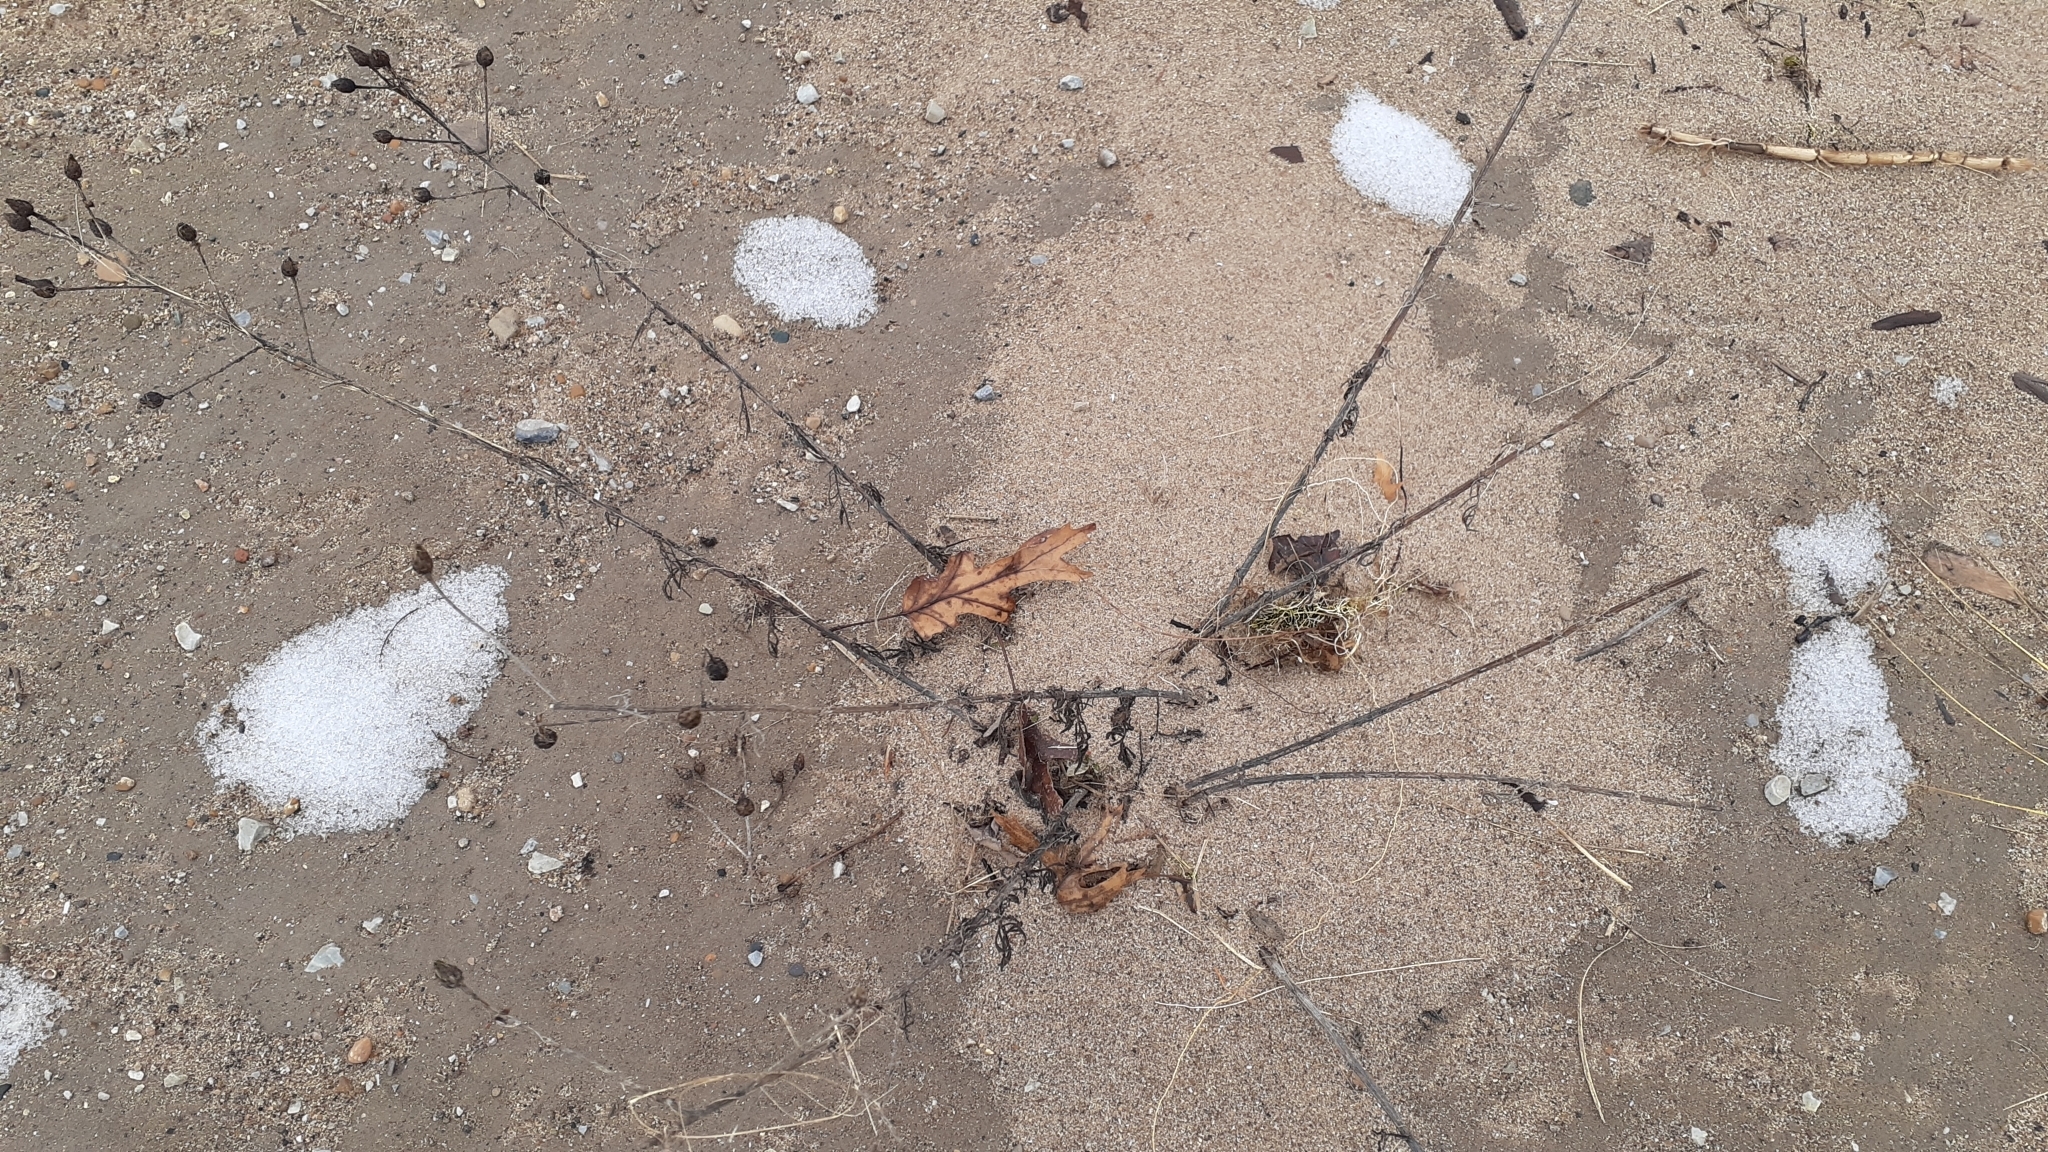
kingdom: Plantae
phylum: Tracheophyta
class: Magnoliopsida
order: Asterales
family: Asteraceae
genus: Centaurea
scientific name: Centaurea stoebe
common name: Spotted knapweed
